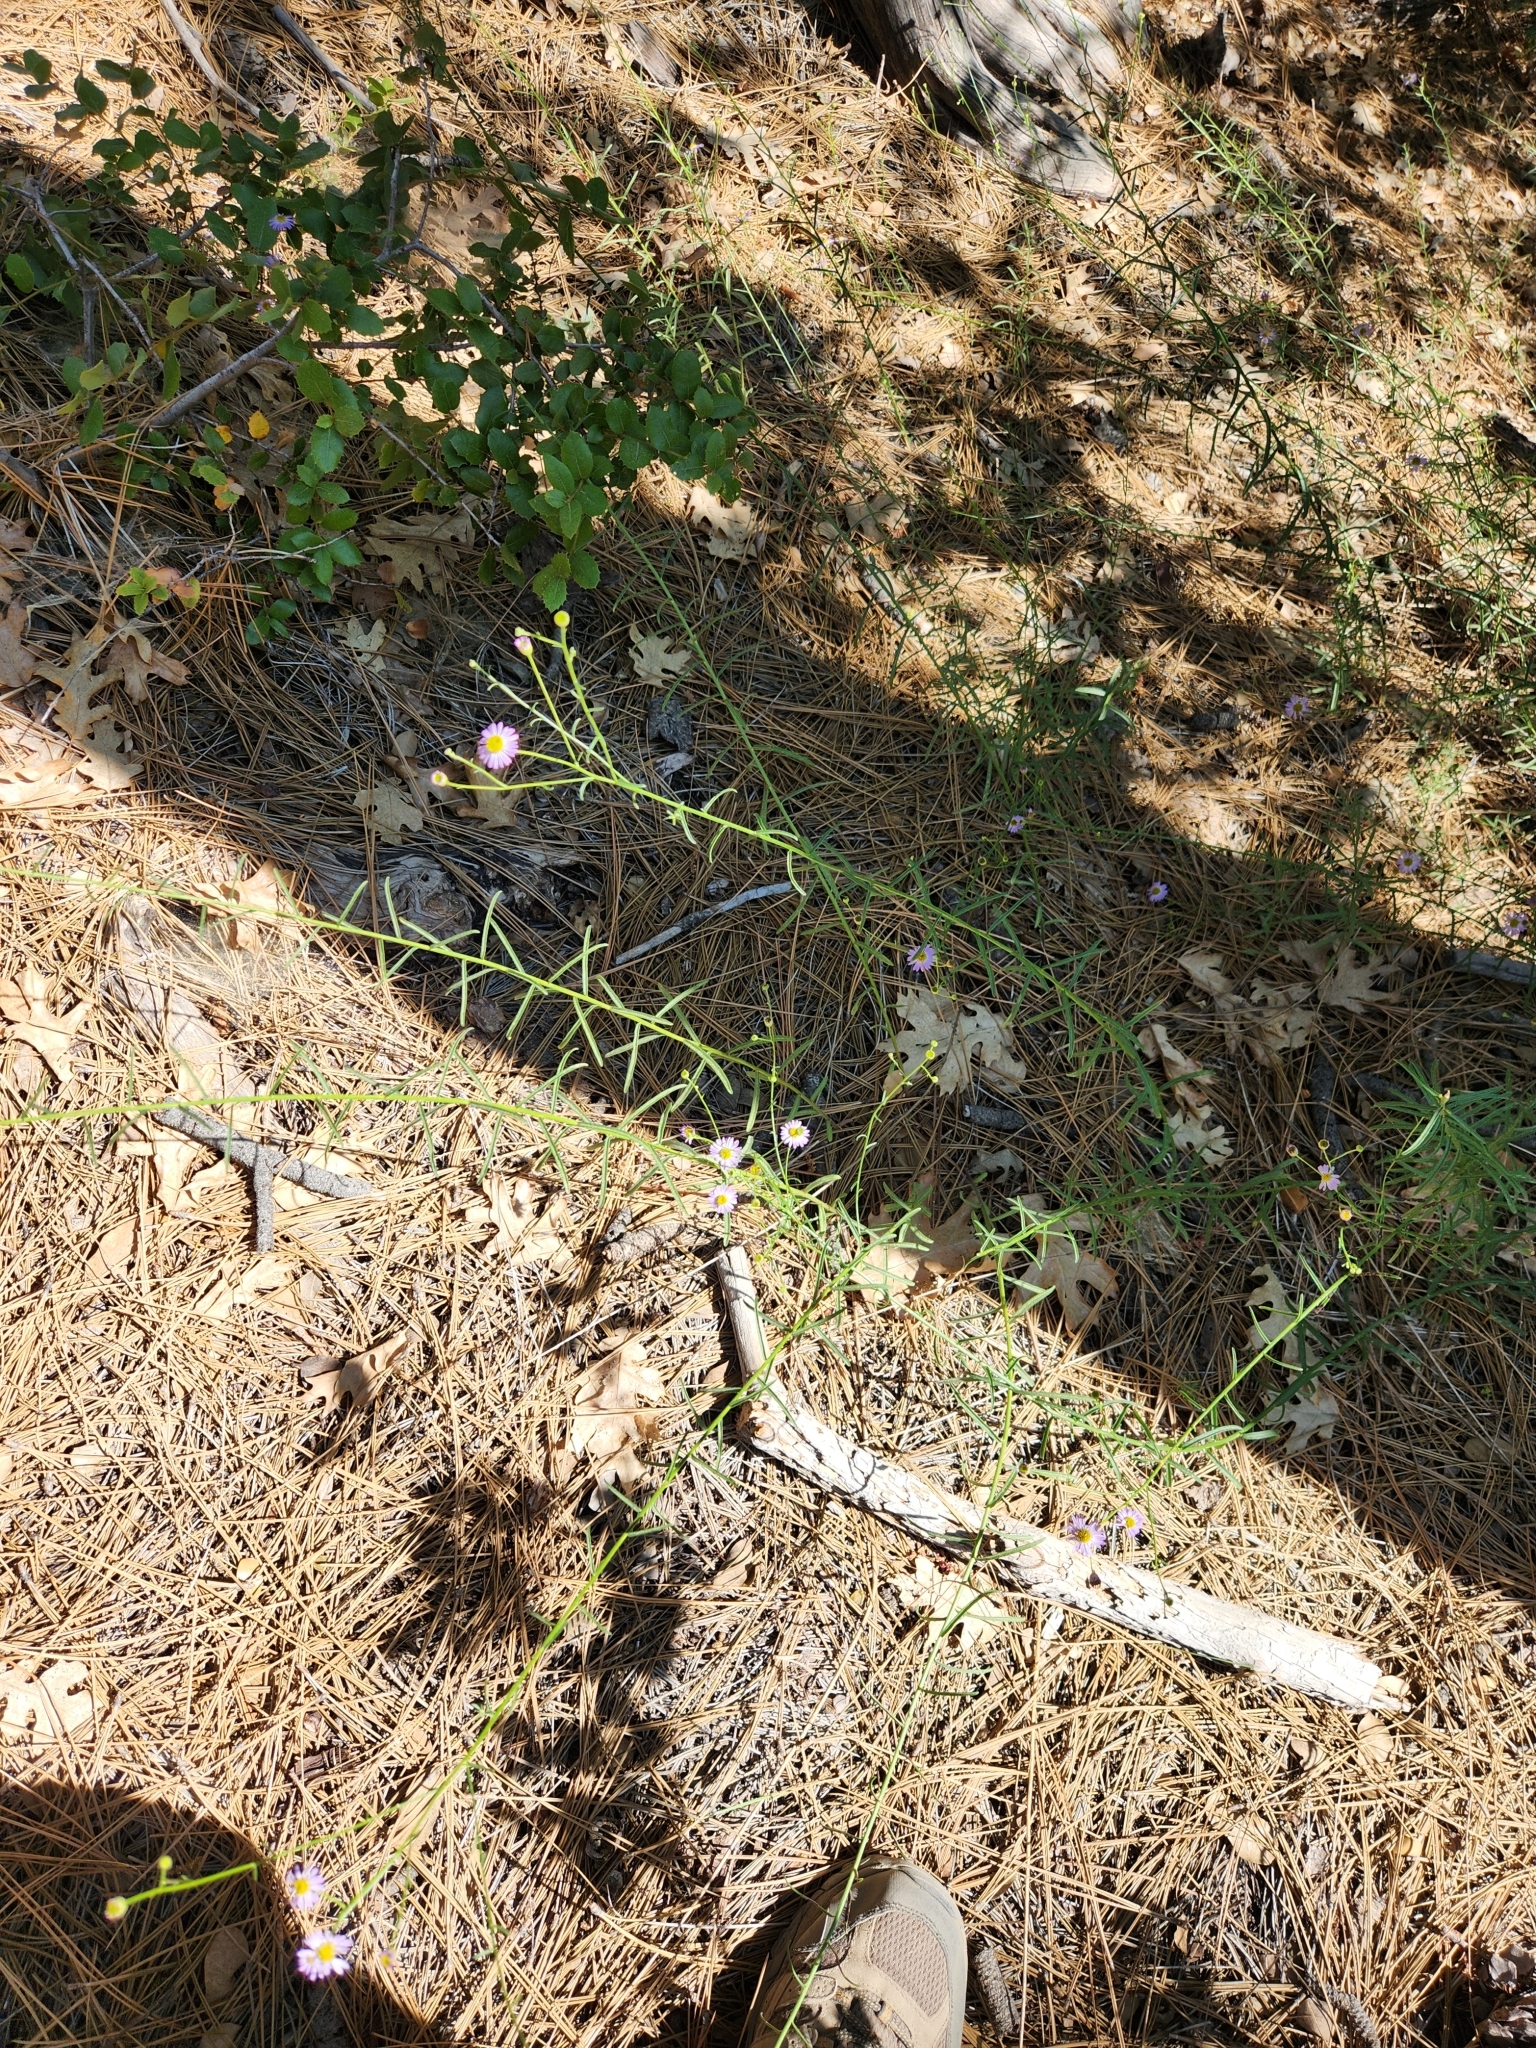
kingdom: Plantae
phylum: Tracheophyta
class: Magnoliopsida
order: Asterales
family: Asteraceae
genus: Erigeron
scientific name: Erigeron foliosus
